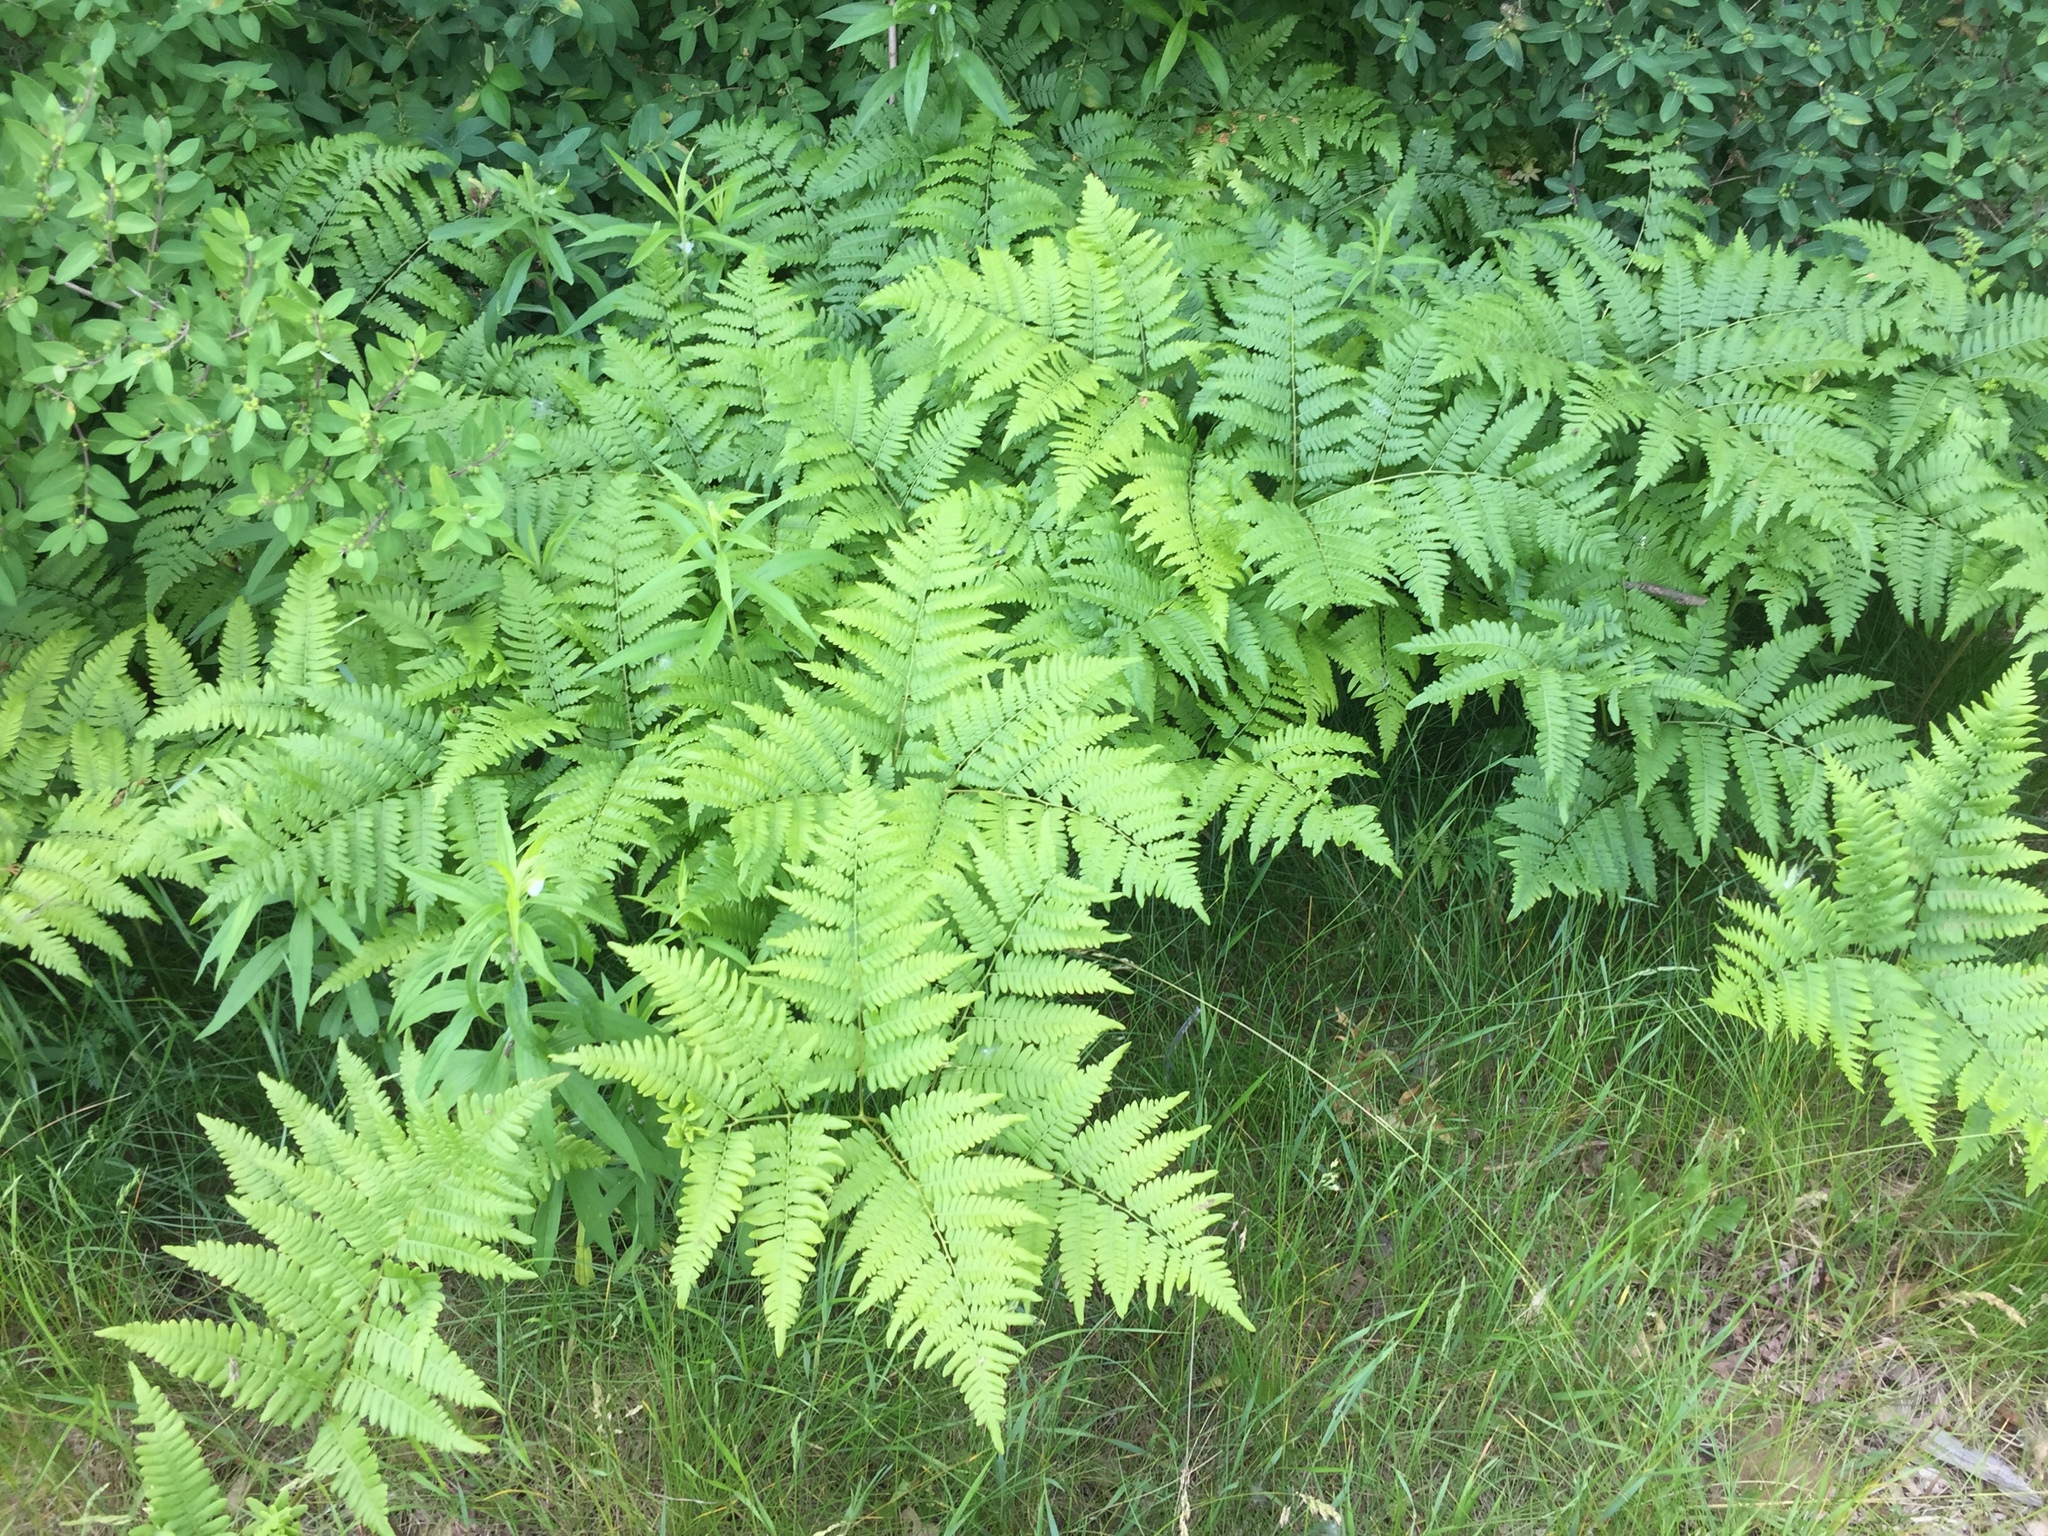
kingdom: Plantae
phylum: Tracheophyta
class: Polypodiopsida
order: Polypodiales
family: Dennstaedtiaceae
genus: Pteridium
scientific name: Pteridium aquilinum
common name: Bracken
